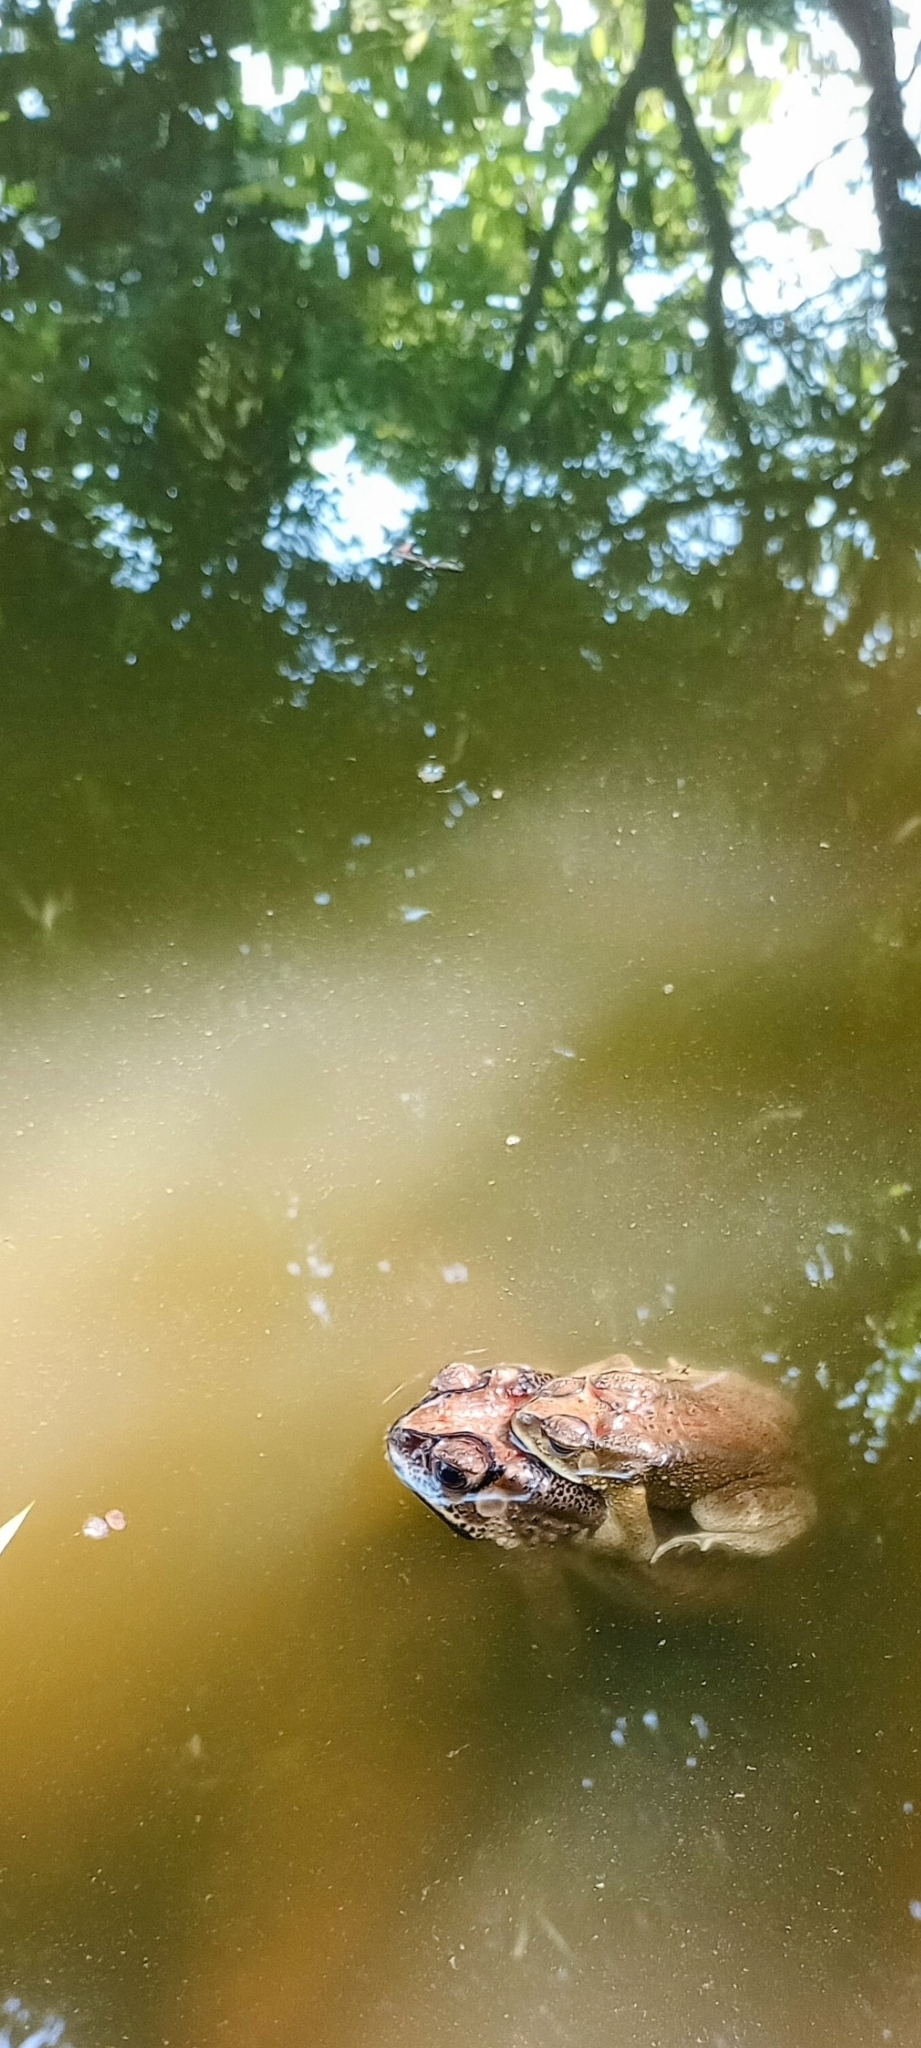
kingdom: Animalia
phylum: Chordata
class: Amphibia
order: Anura
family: Bufonidae
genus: Duttaphrynus
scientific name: Duttaphrynus melanostictus
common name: Common sunda toad
